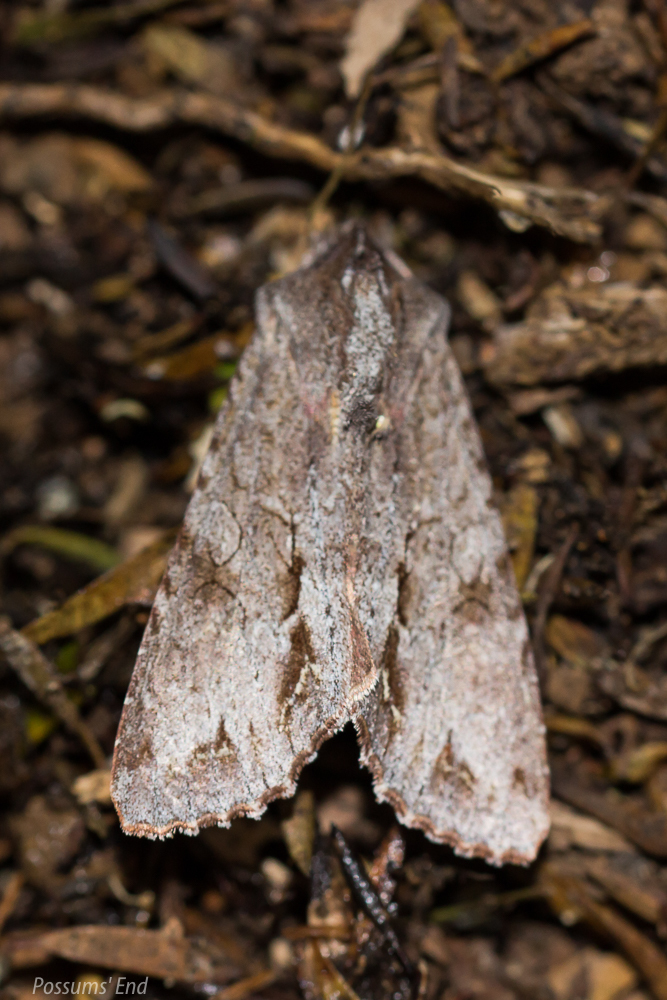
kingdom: Animalia
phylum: Arthropoda
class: Insecta
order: Lepidoptera
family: Noctuidae
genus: Ichneutica
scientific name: Ichneutica
